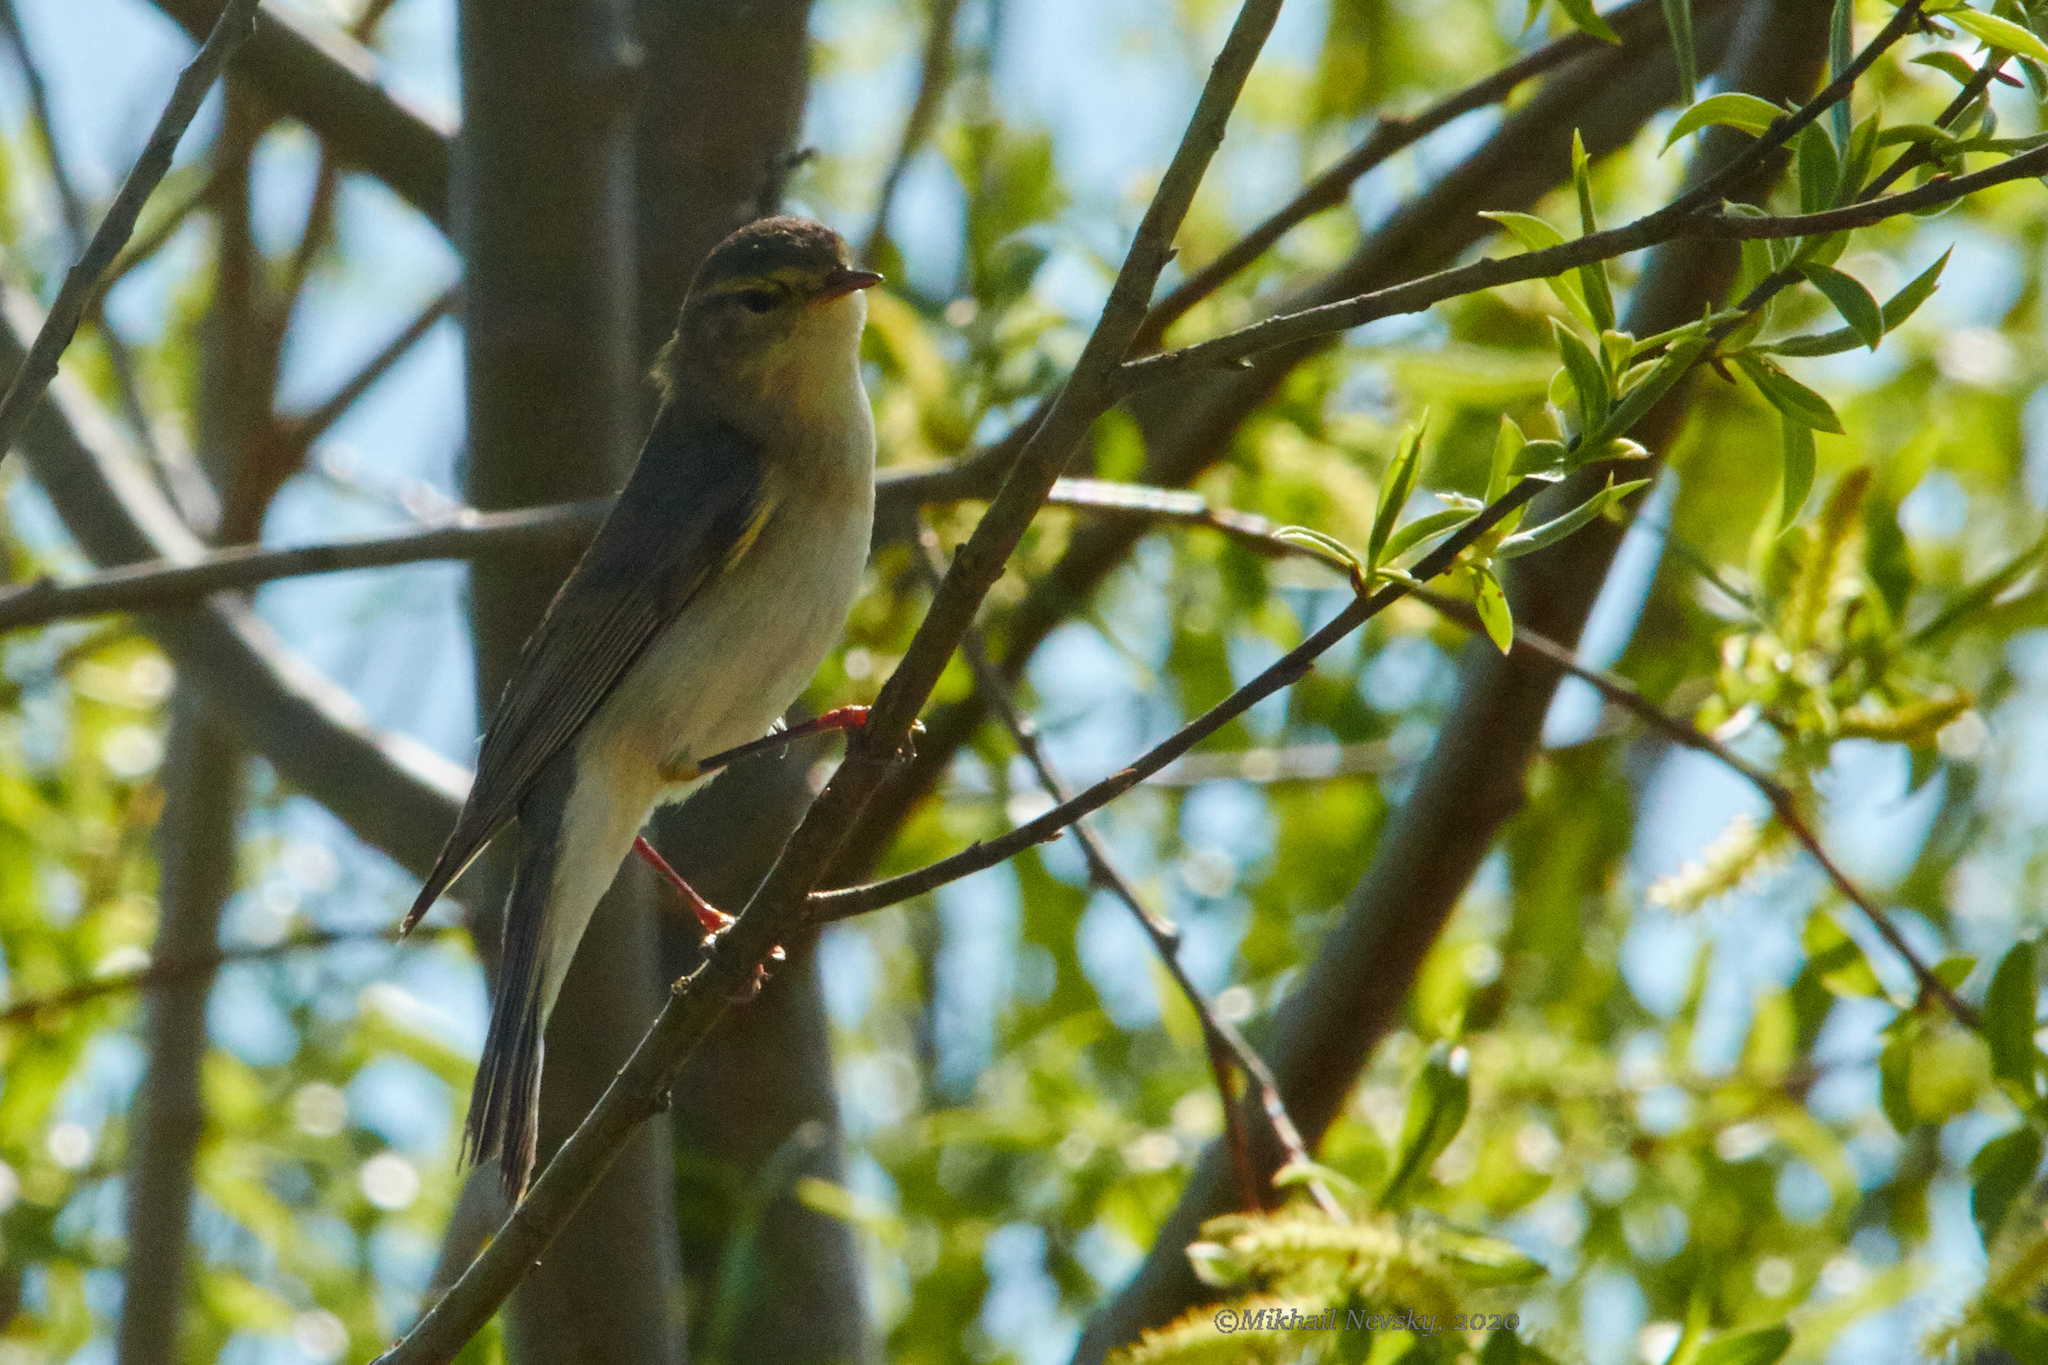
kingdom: Animalia
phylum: Chordata
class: Aves
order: Passeriformes
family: Phylloscopidae
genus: Phylloscopus
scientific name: Phylloscopus trochilus
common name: Willow warbler
